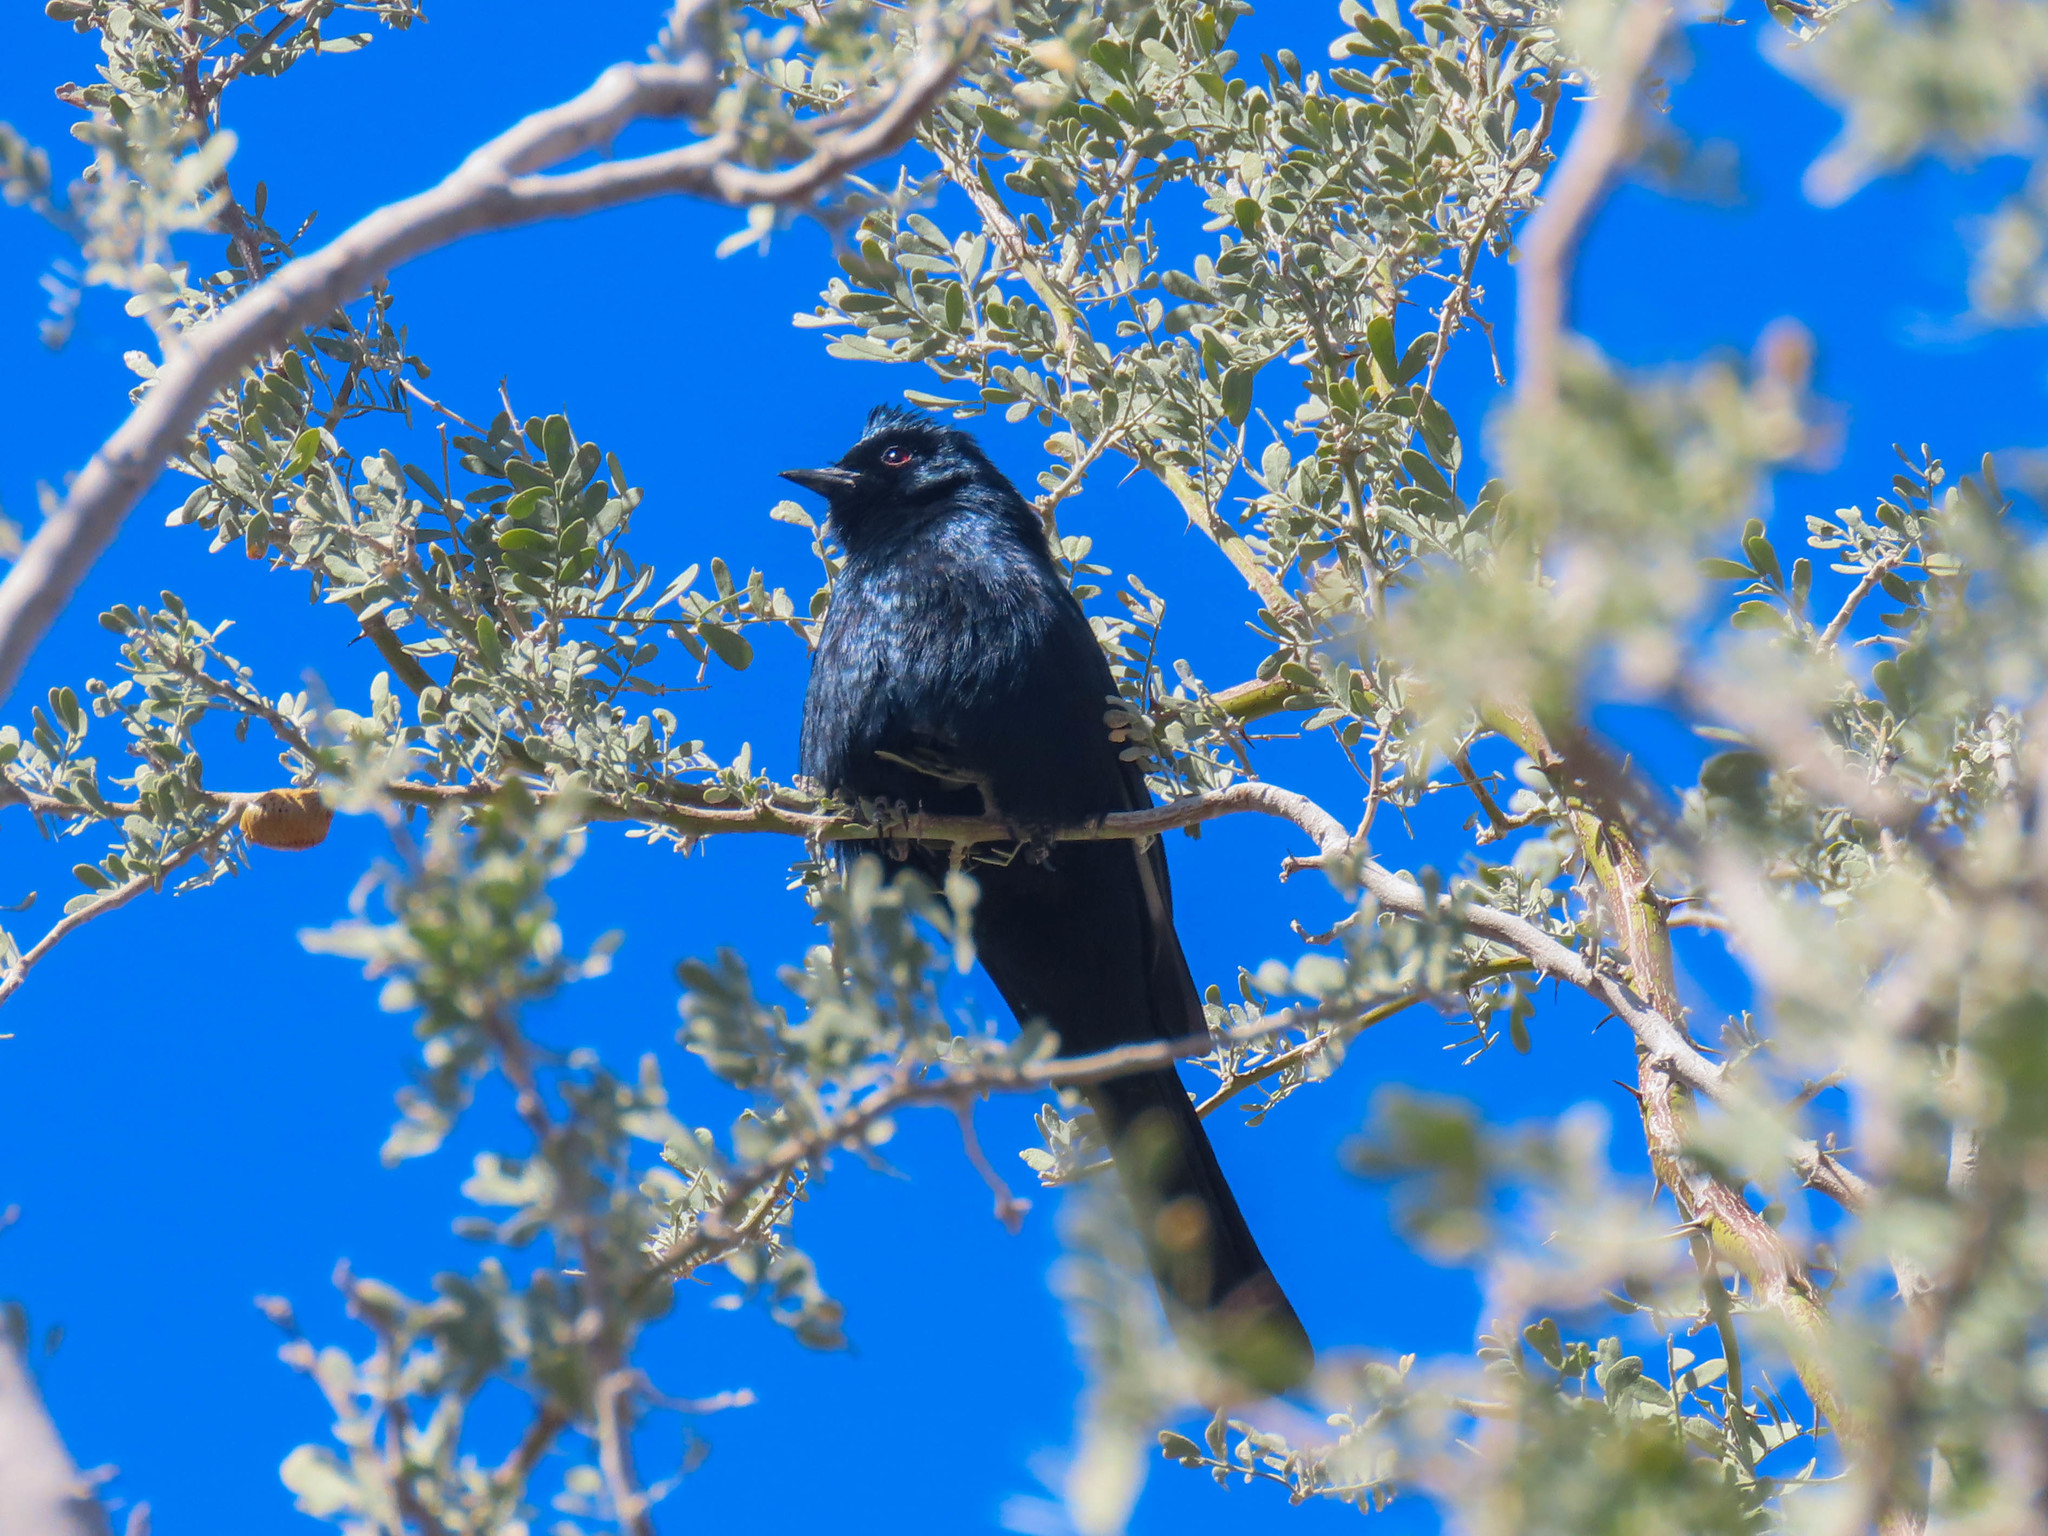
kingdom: Animalia
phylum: Chordata
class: Aves
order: Passeriformes
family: Ptilogonatidae
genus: Phainopepla
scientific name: Phainopepla nitens
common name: Phainopepla
